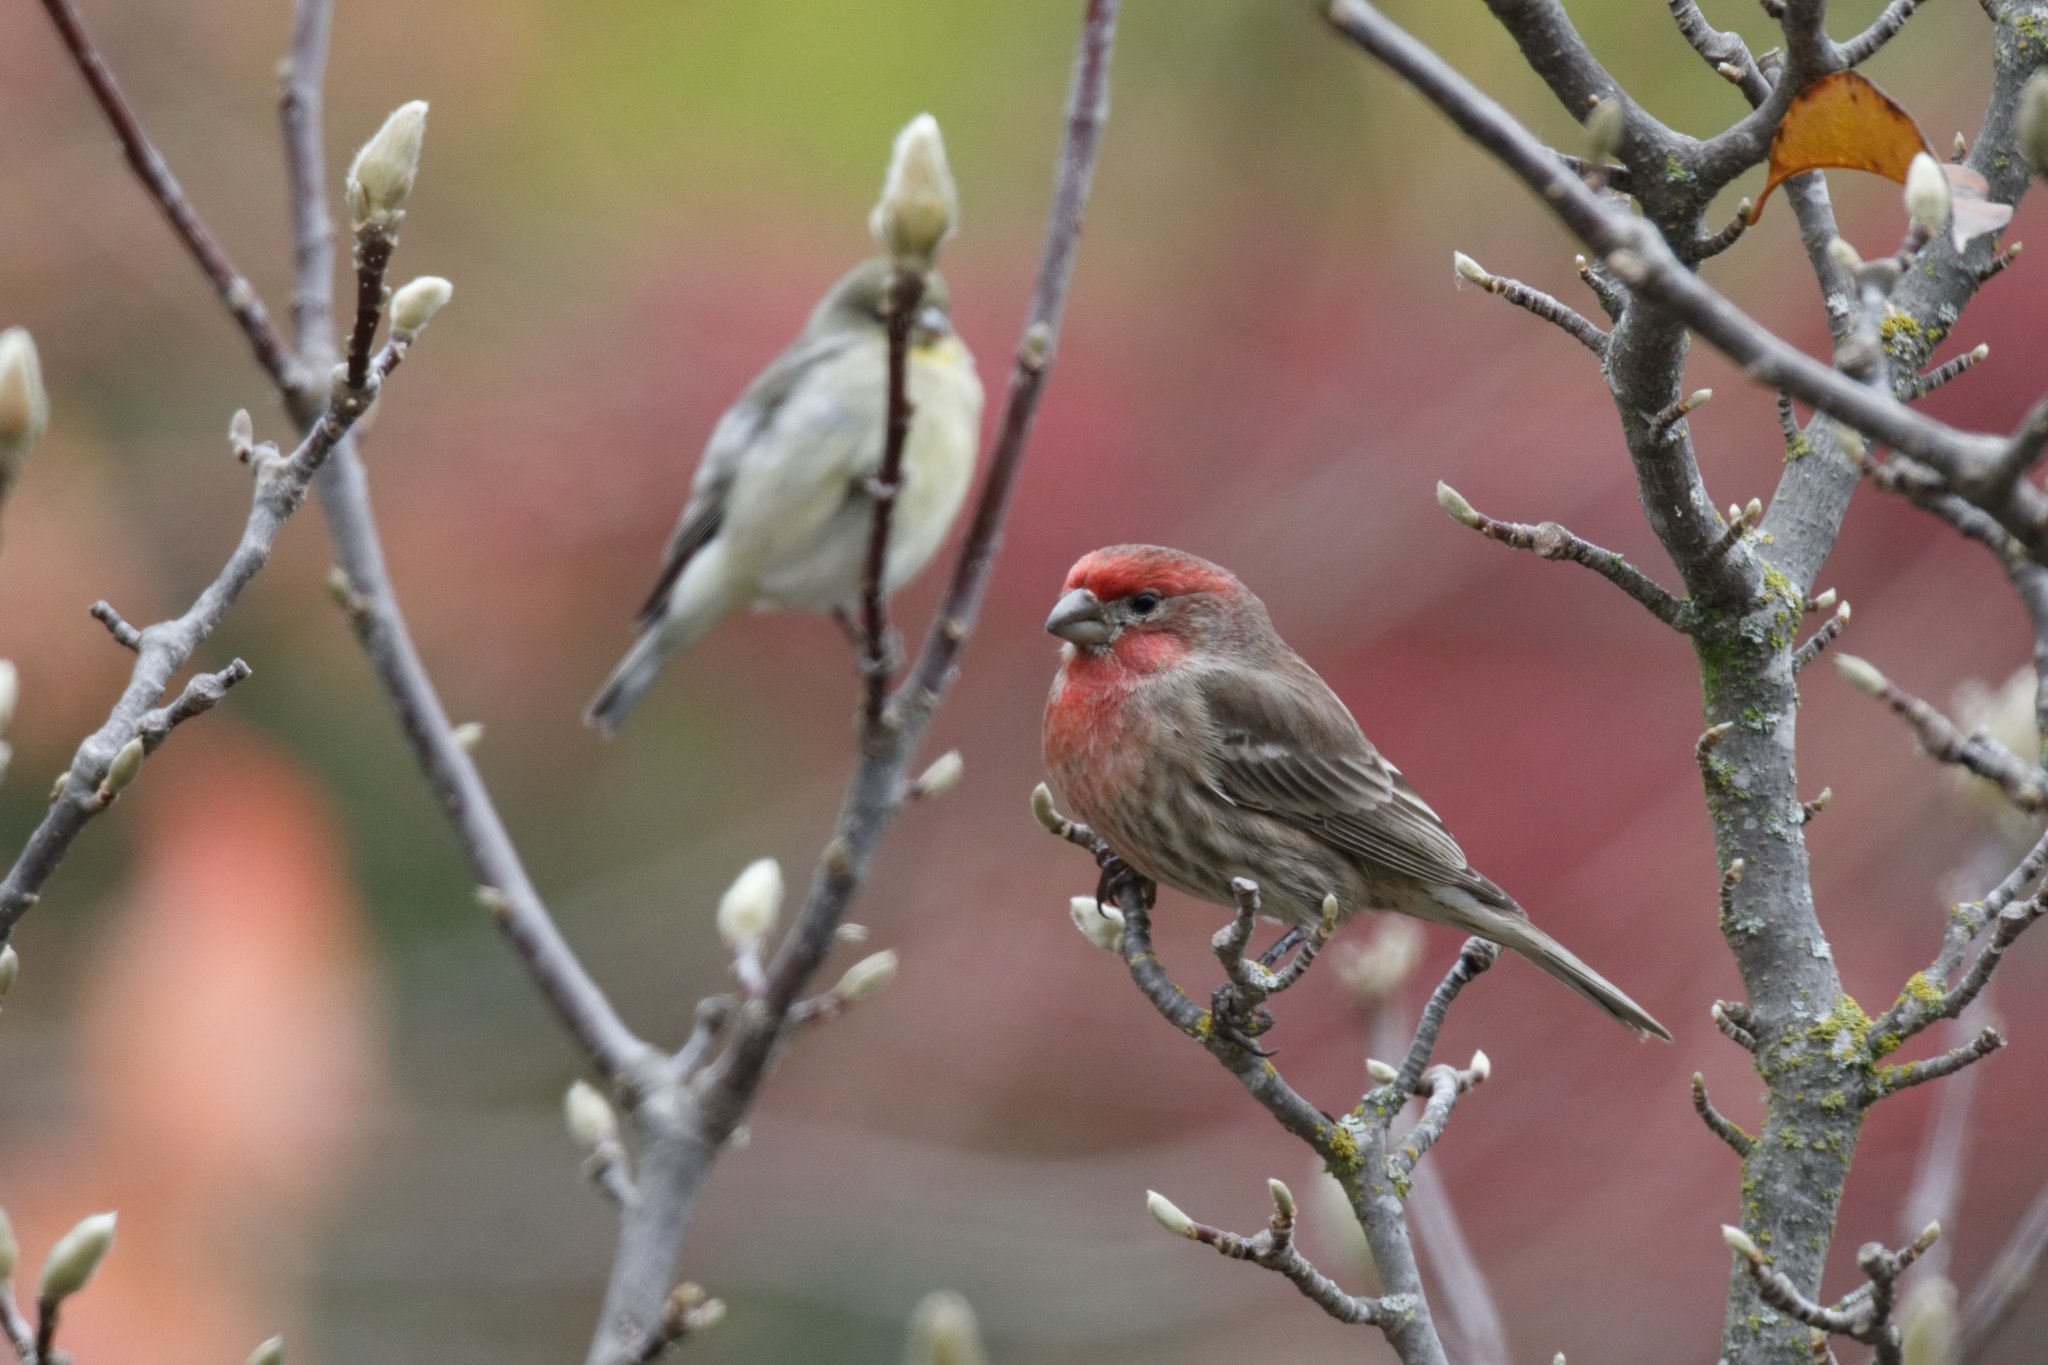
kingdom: Animalia
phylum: Chordata
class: Aves
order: Passeriformes
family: Fringillidae
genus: Haemorhous
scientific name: Haemorhous mexicanus
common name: House finch
